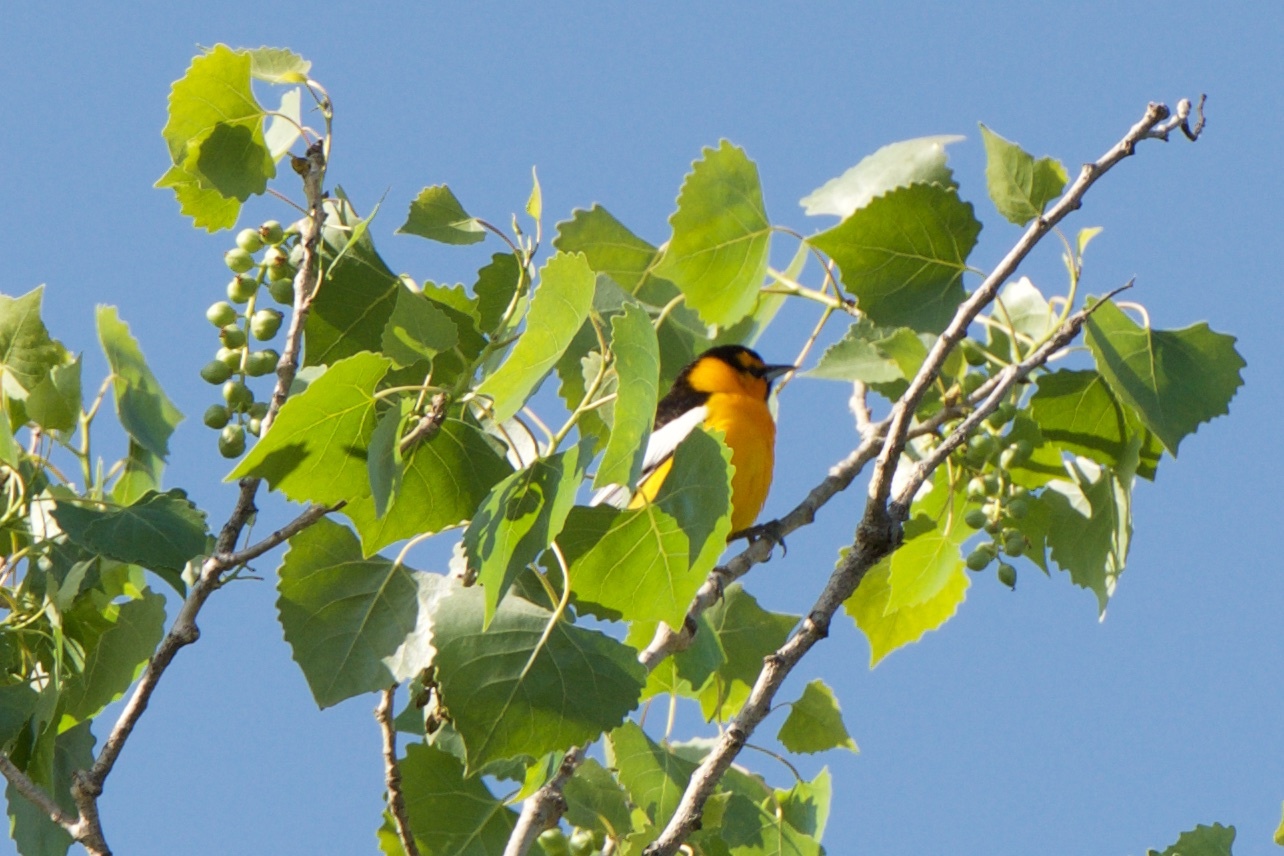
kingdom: Animalia
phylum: Chordata
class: Aves
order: Passeriformes
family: Icteridae
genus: Icterus
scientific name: Icterus bullockii
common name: Bullock's oriole
